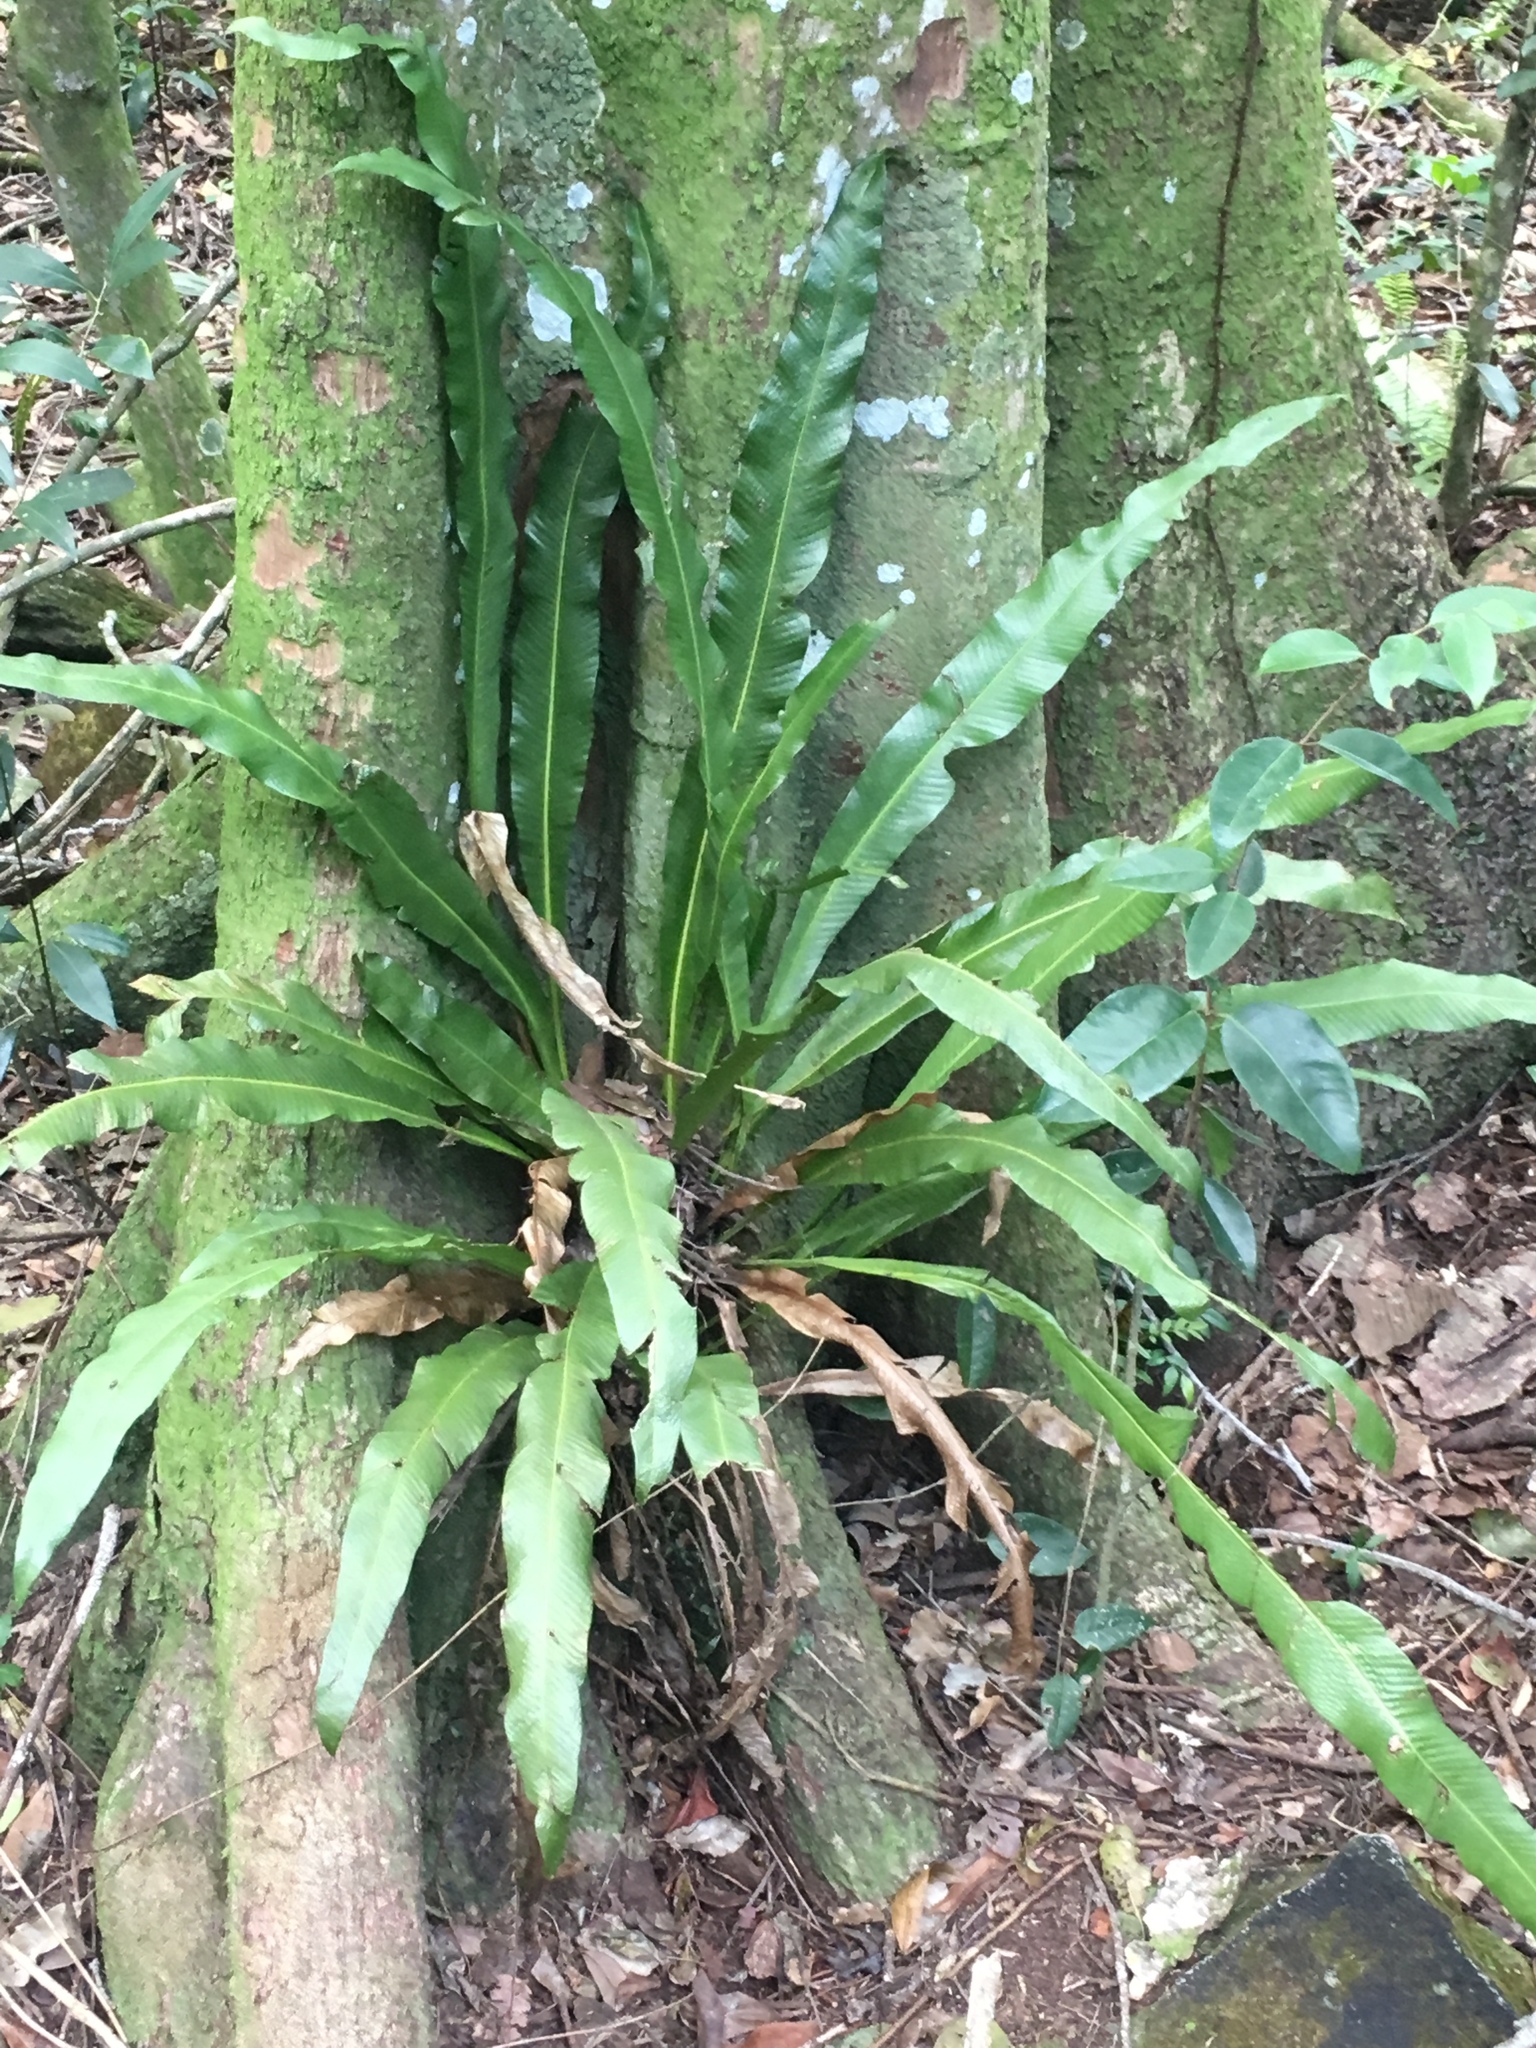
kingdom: Plantae
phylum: Tracheophyta
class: Polypodiopsida
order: Polypodiales
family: Polypodiaceae
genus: Campyloneurum
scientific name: Campyloneurum phyllitidis
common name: Cow-tongue fern
